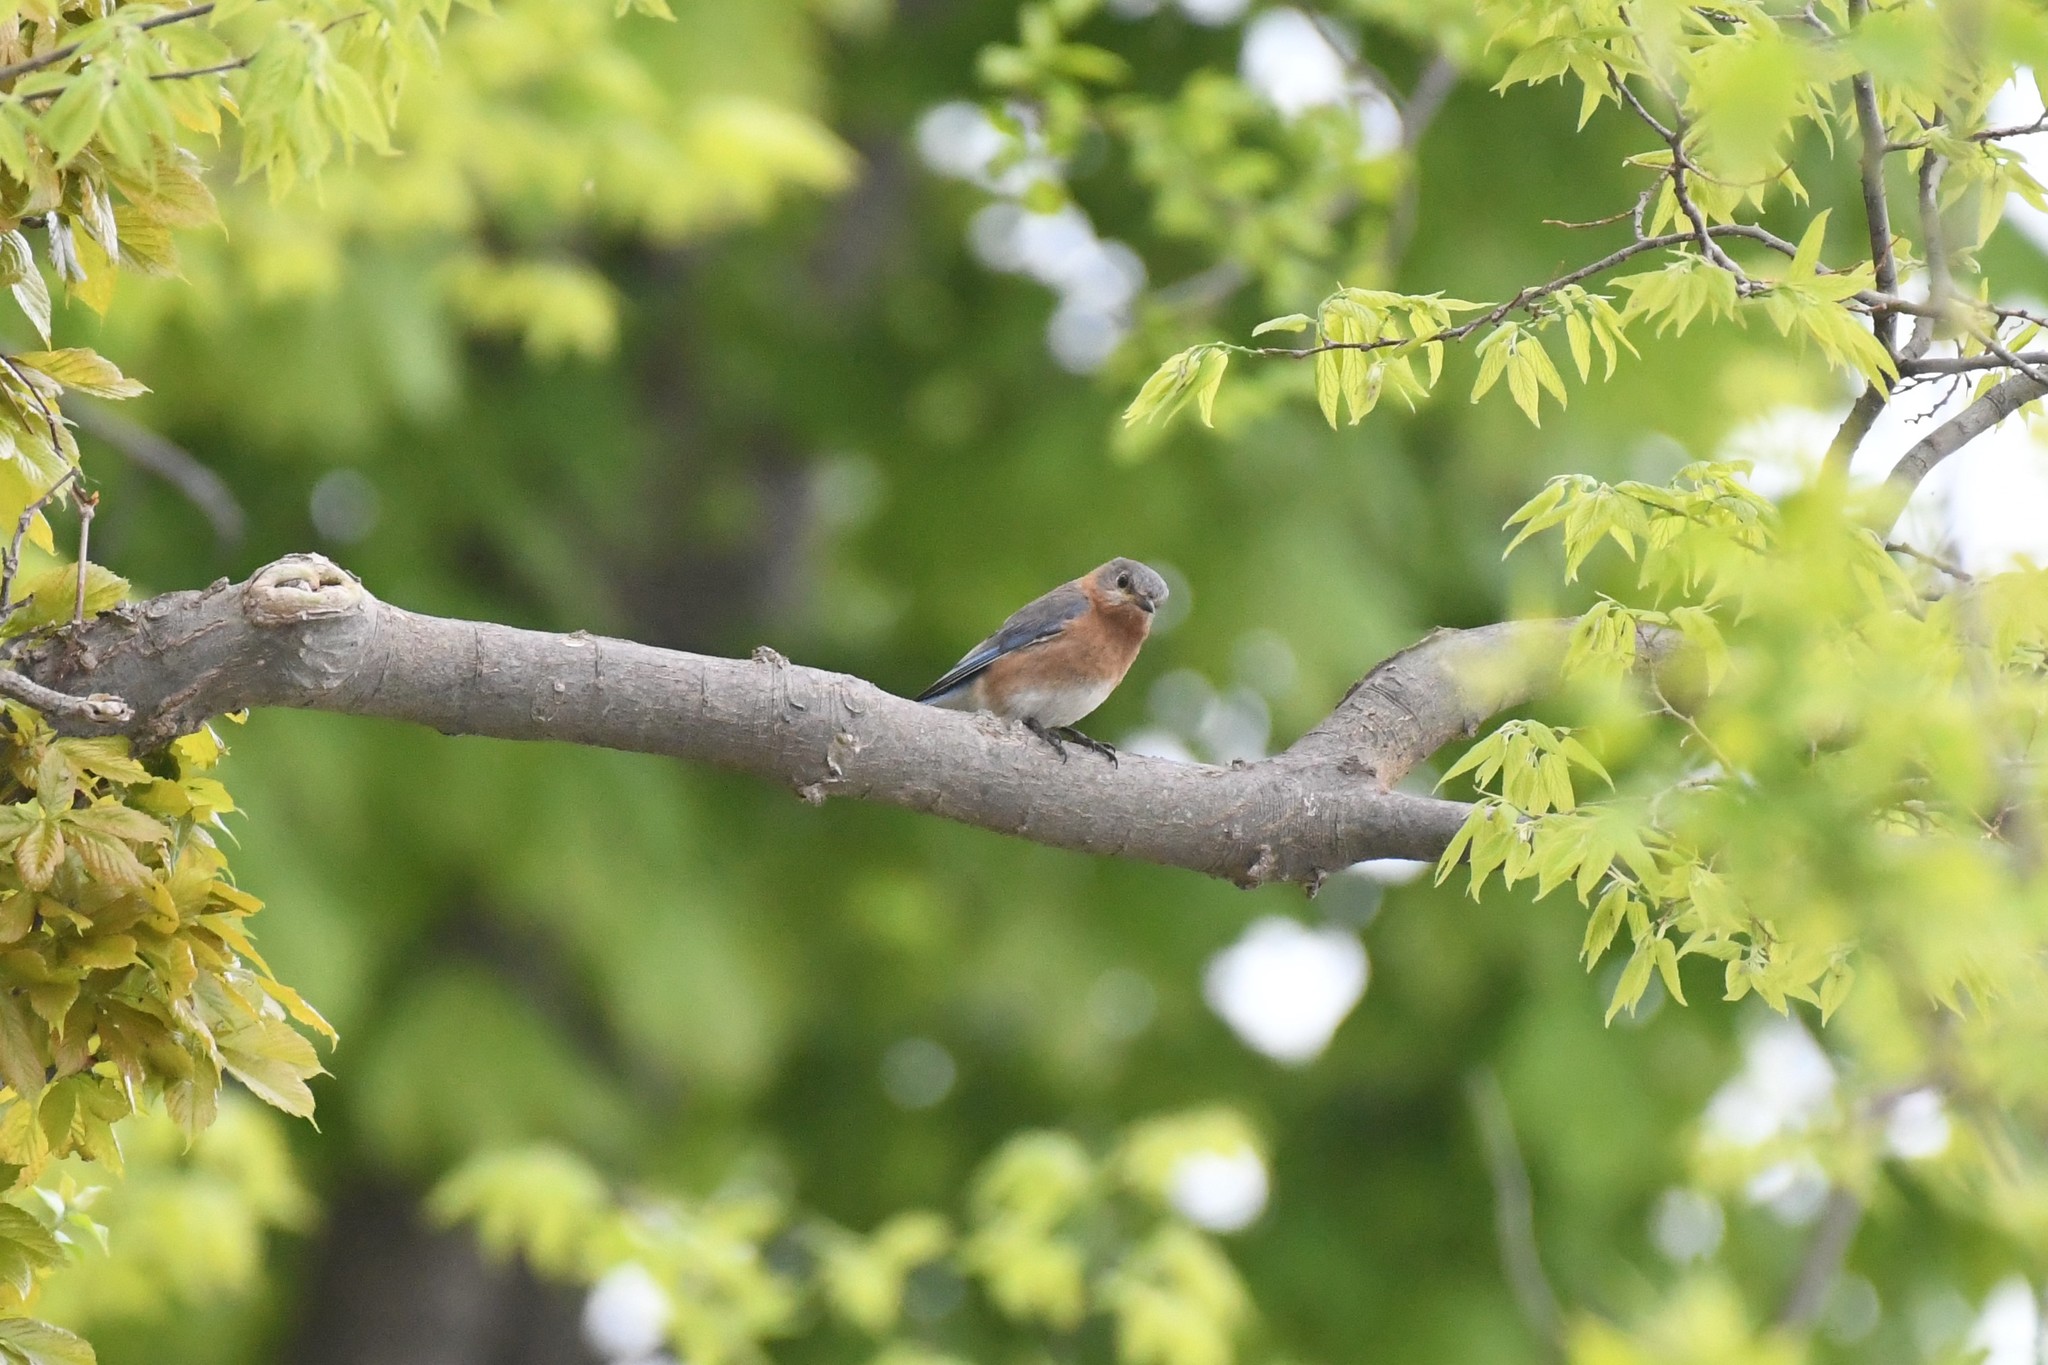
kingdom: Animalia
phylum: Chordata
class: Aves
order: Passeriformes
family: Turdidae
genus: Sialia
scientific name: Sialia sialis
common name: Eastern bluebird
